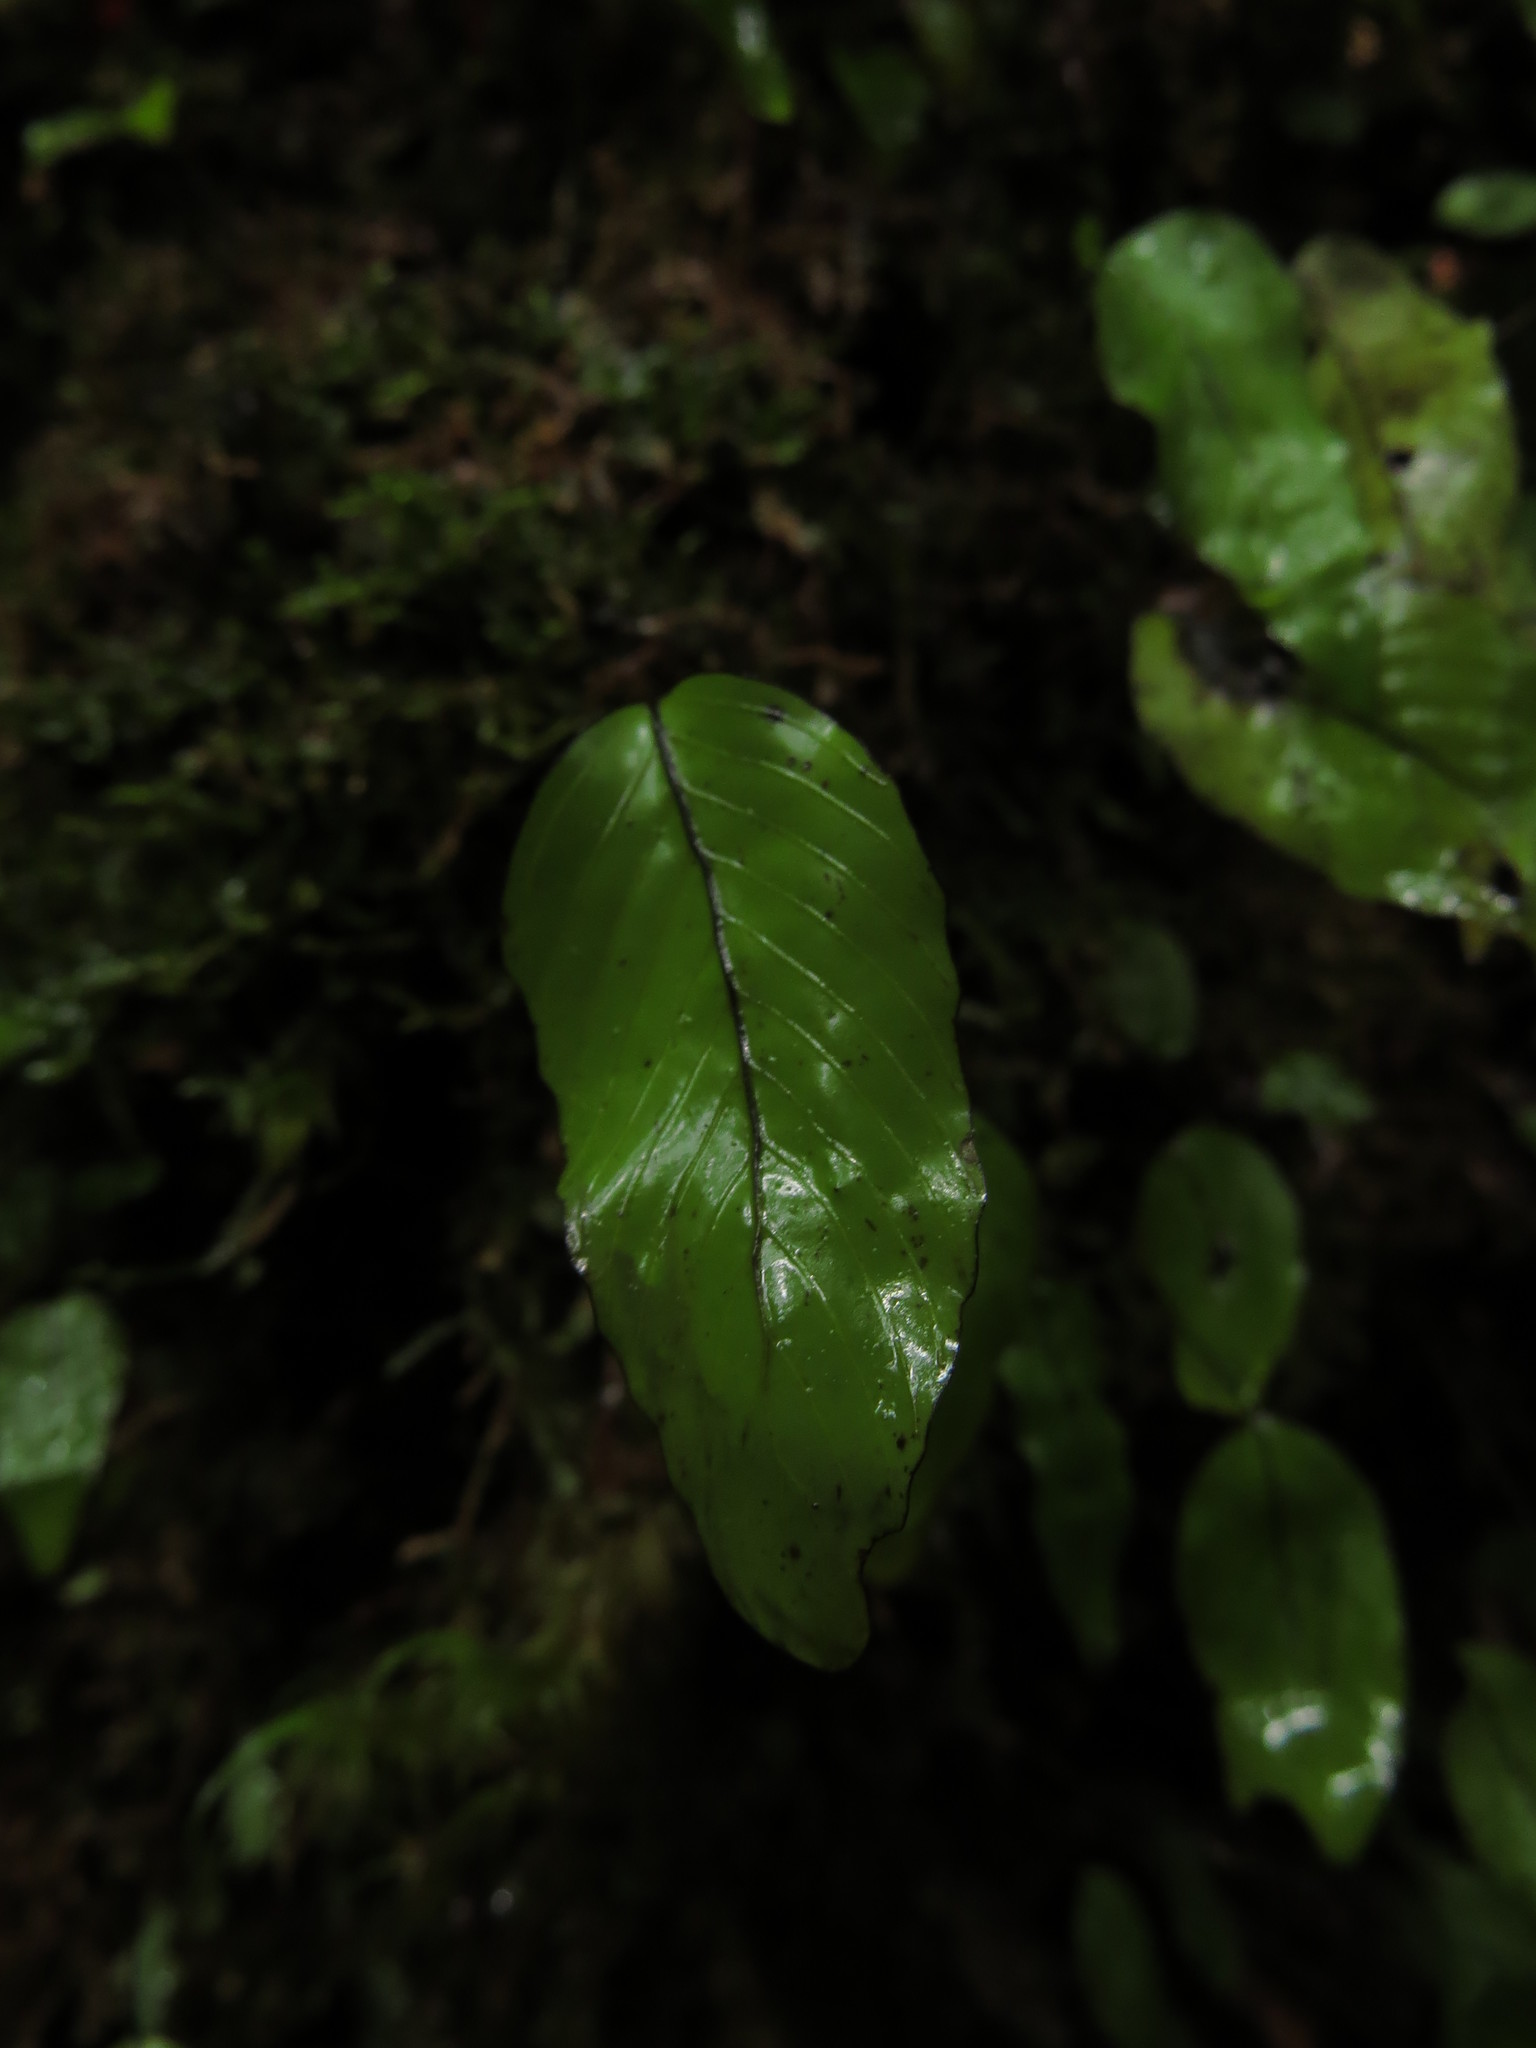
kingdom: Plantae
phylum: Tracheophyta
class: Polypodiopsida
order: Hymenophyllales
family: Hymenophyllaceae
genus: Hymenophyllum
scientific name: Hymenophyllum cruentum
